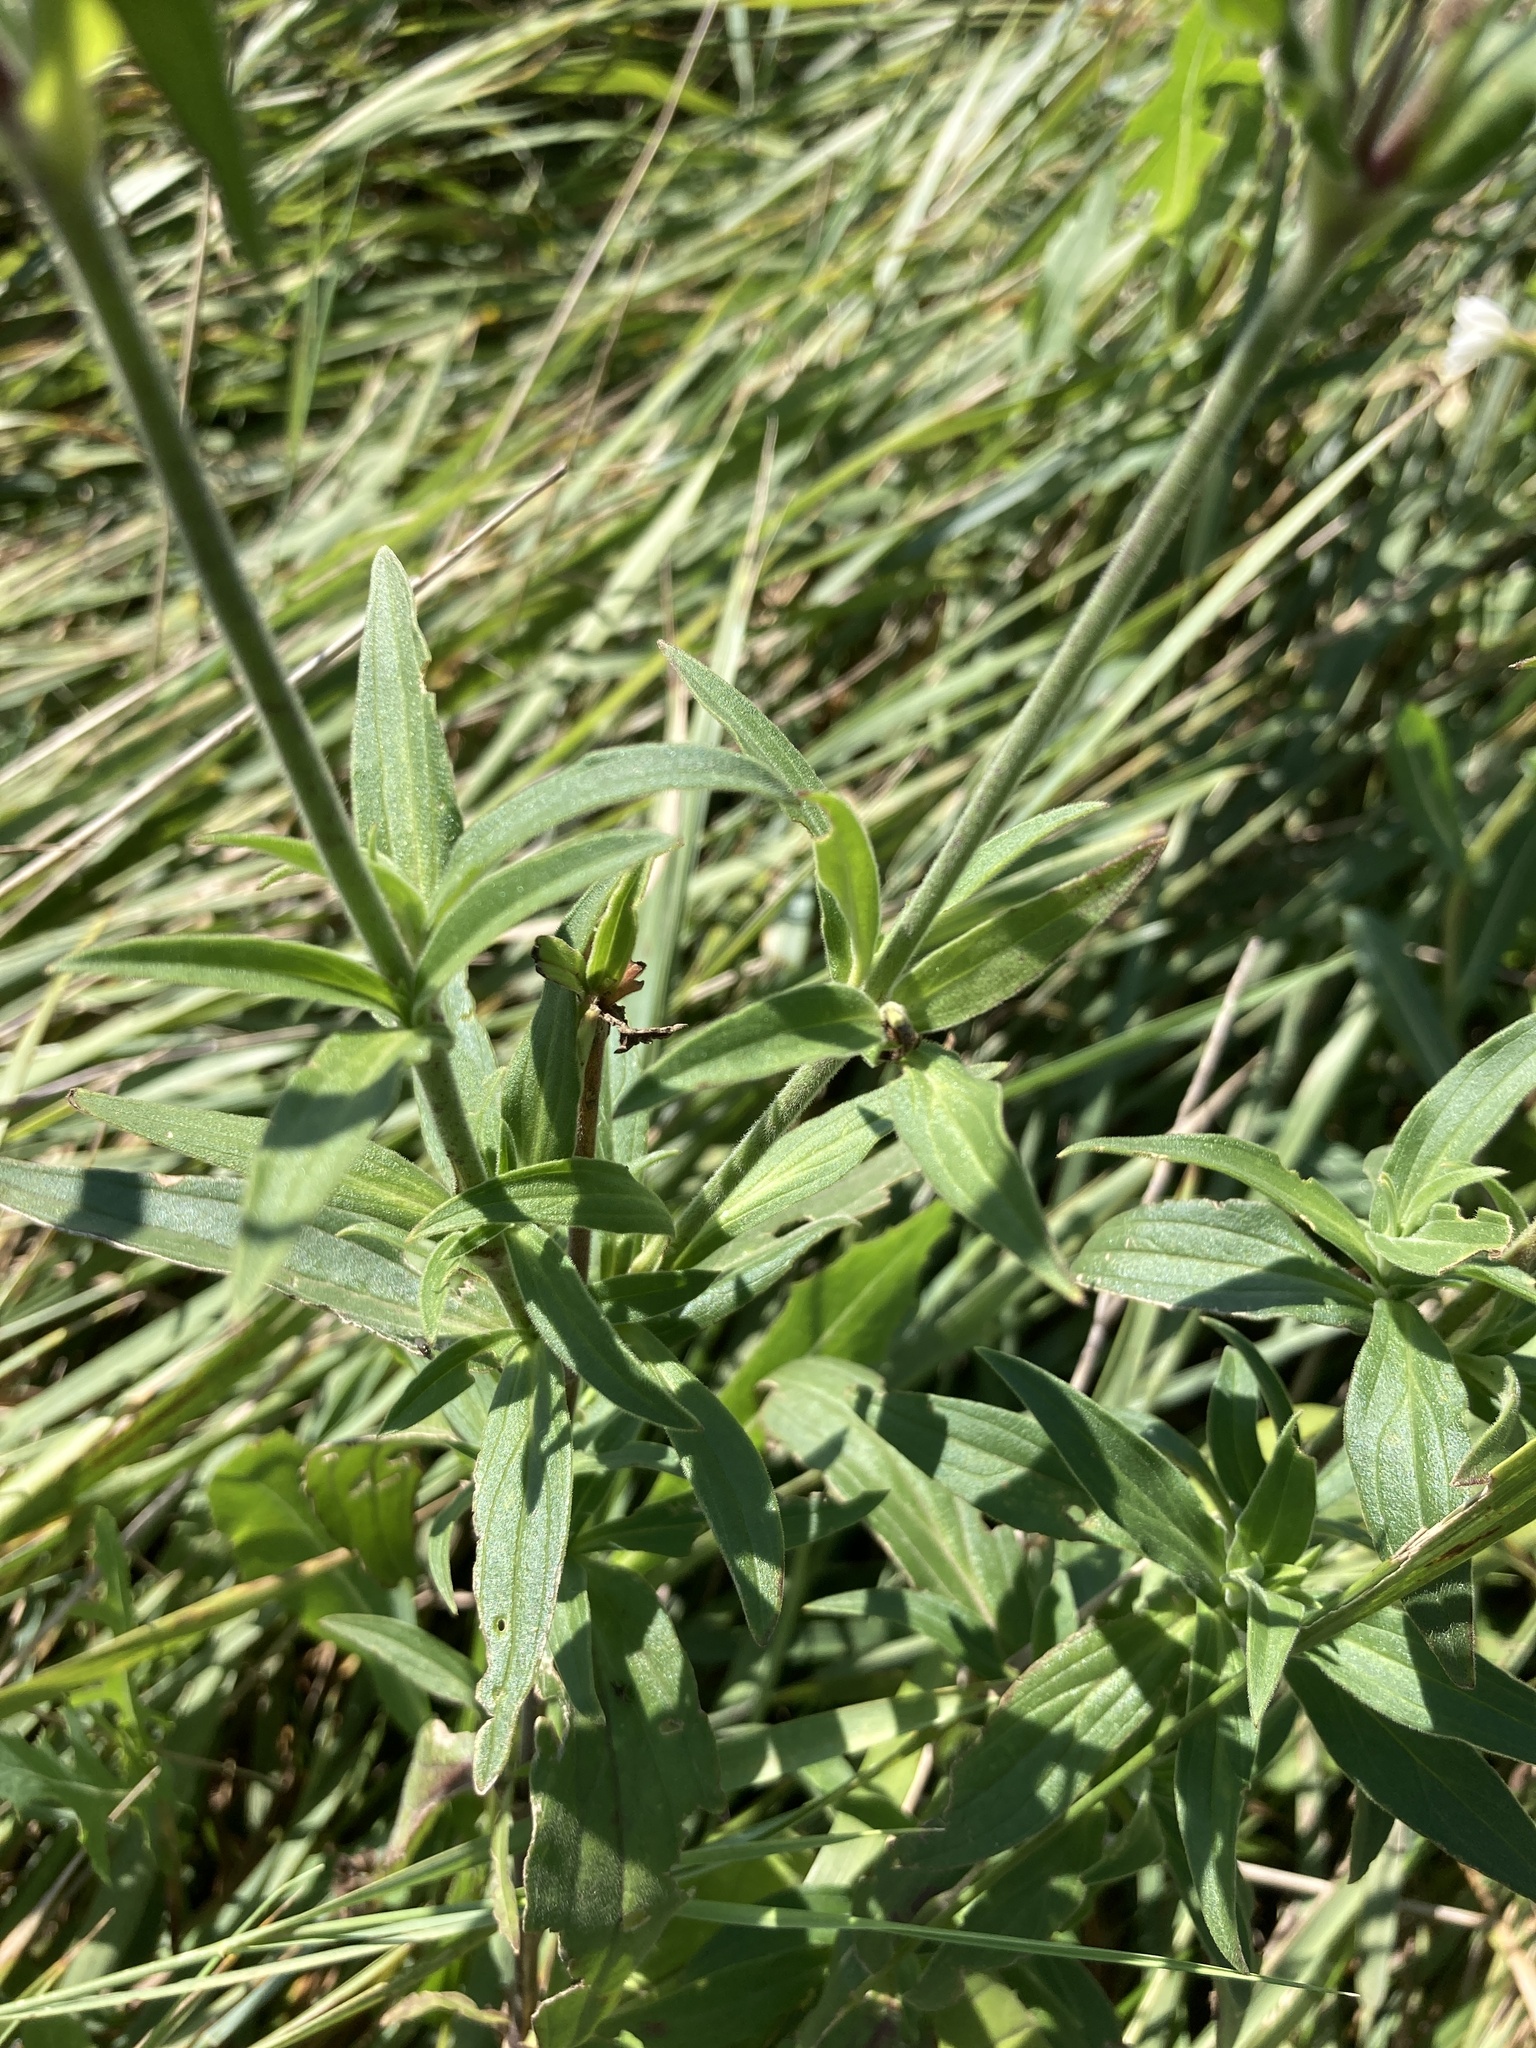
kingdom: Plantae
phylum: Tracheophyta
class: Magnoliopsida
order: Caryophyllales
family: Caryophyllaceae
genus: Silene
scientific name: Silene latifolia
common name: White campion
